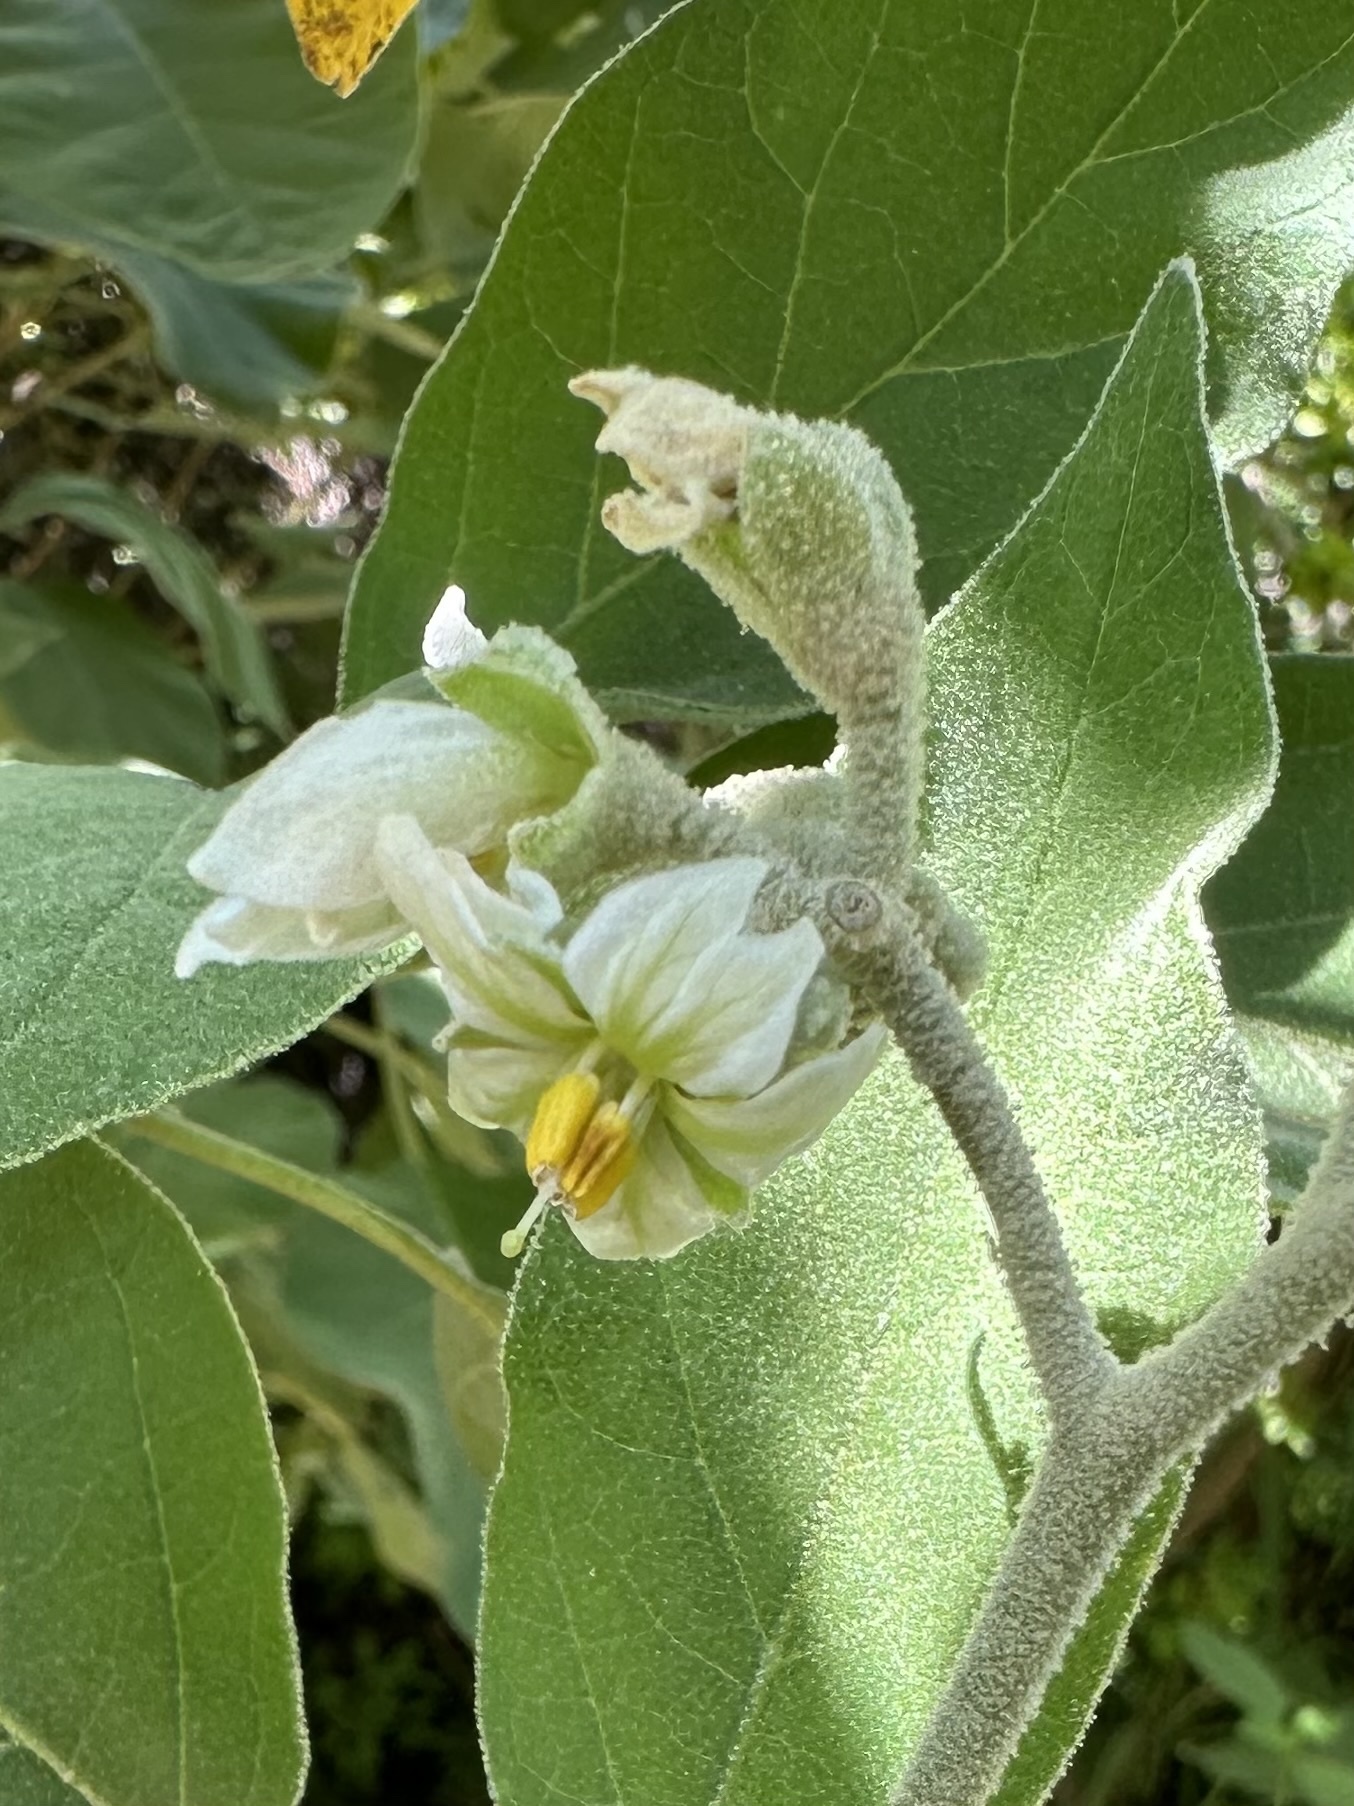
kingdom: Plantae
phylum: Tracheophyta
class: Magnoliopsida
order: Solanales
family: Solanaceae
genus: Solanum
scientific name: Solanum erianthum
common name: Tobacco-tree
